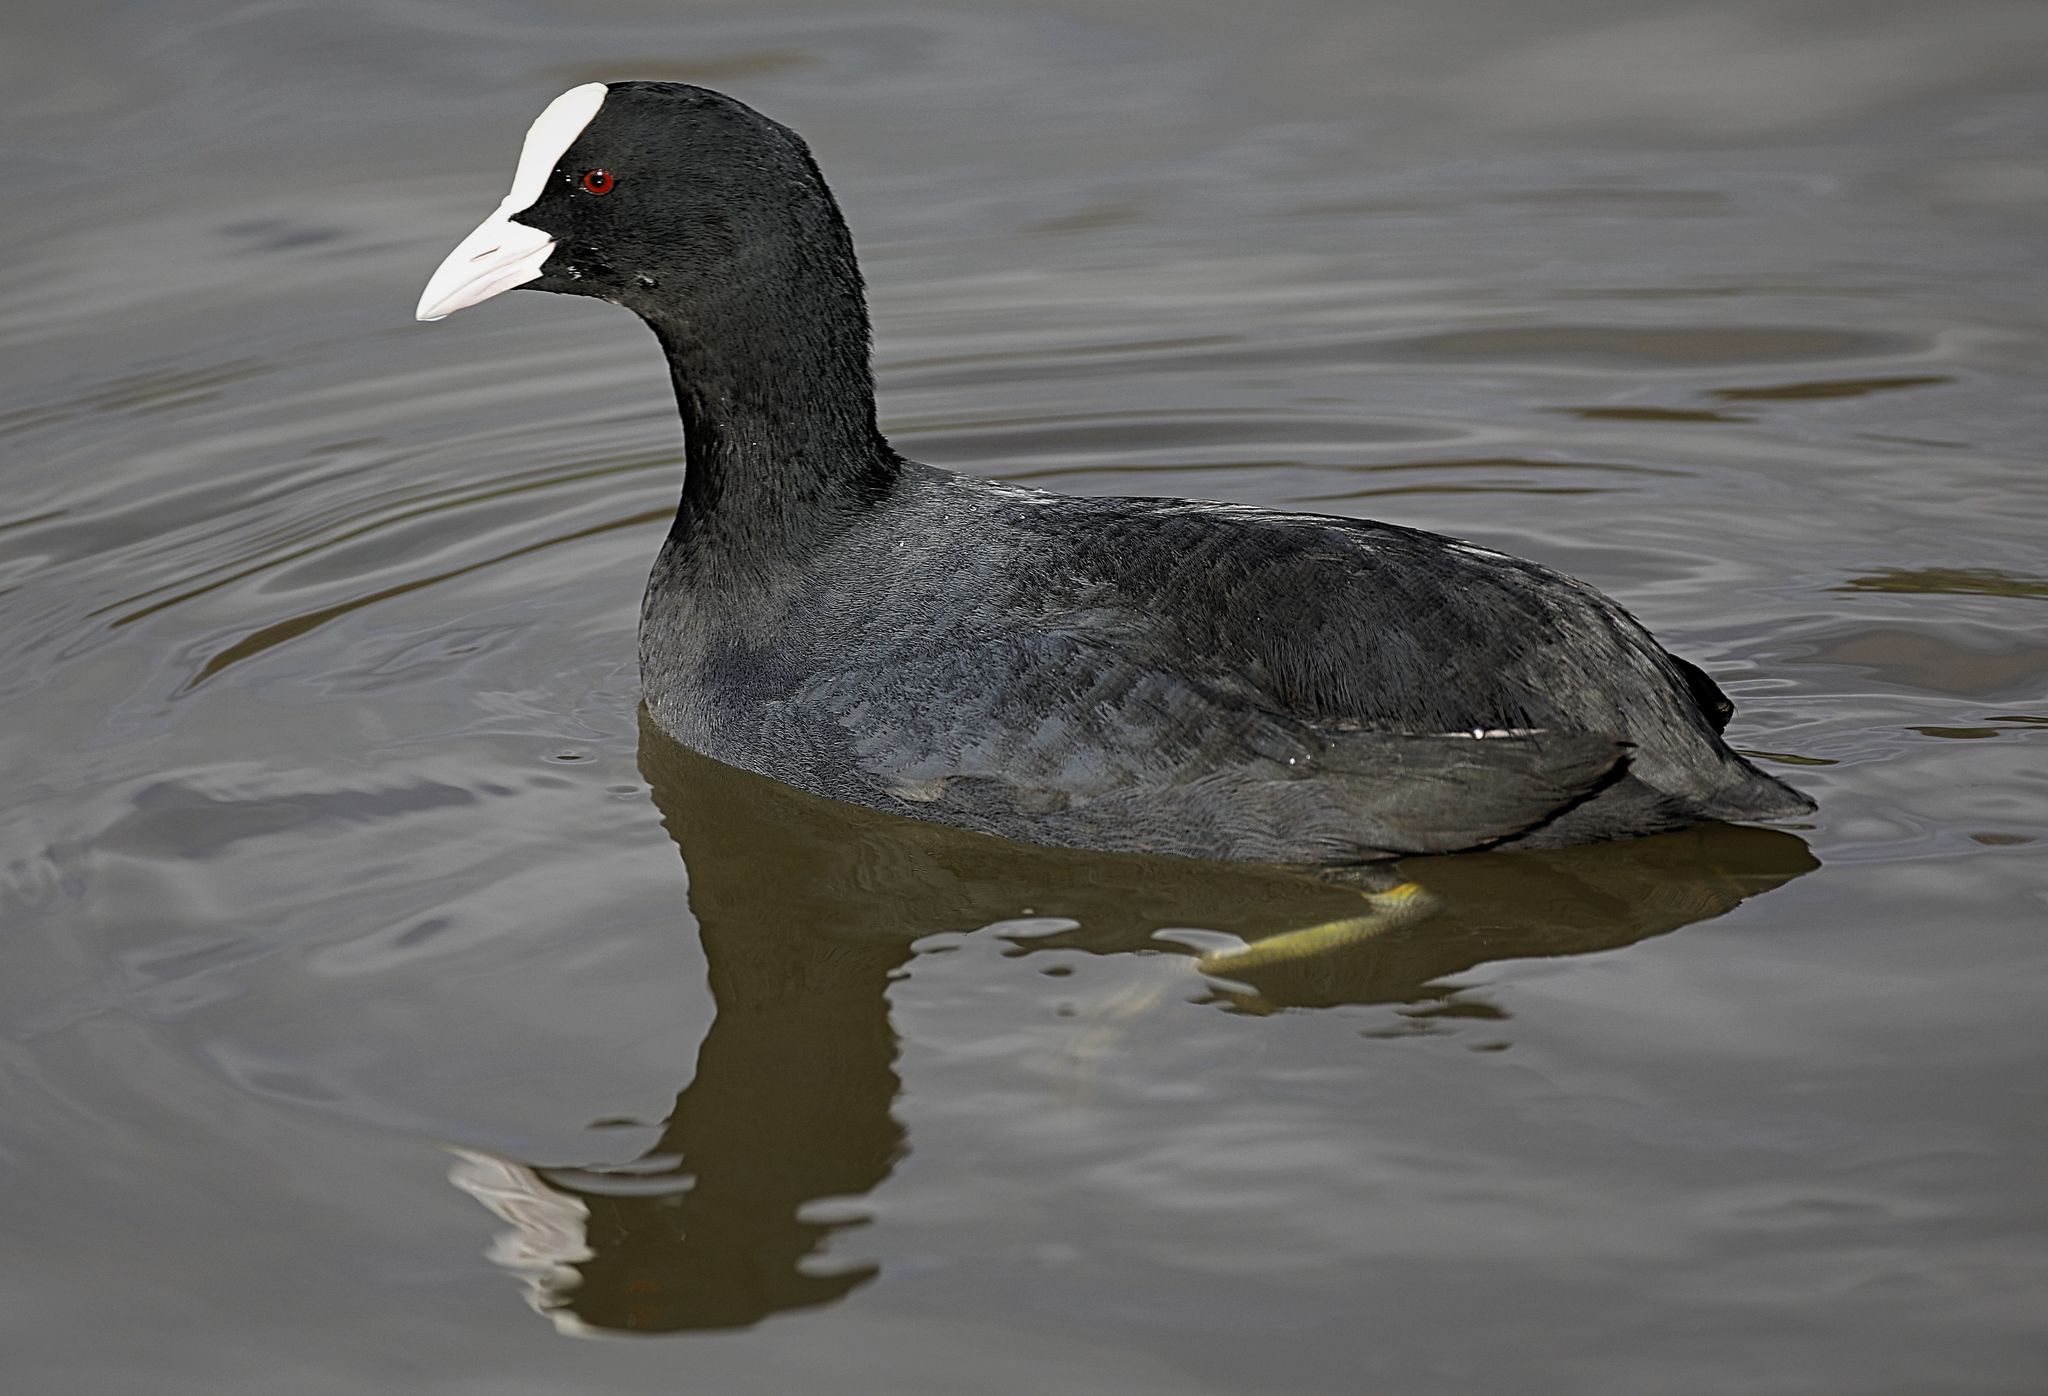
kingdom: Animalia
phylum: Chordata
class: Aves
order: Gruiformes
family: Rallidae
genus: Fulica
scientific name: Fulica atra
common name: Eurasian coot
